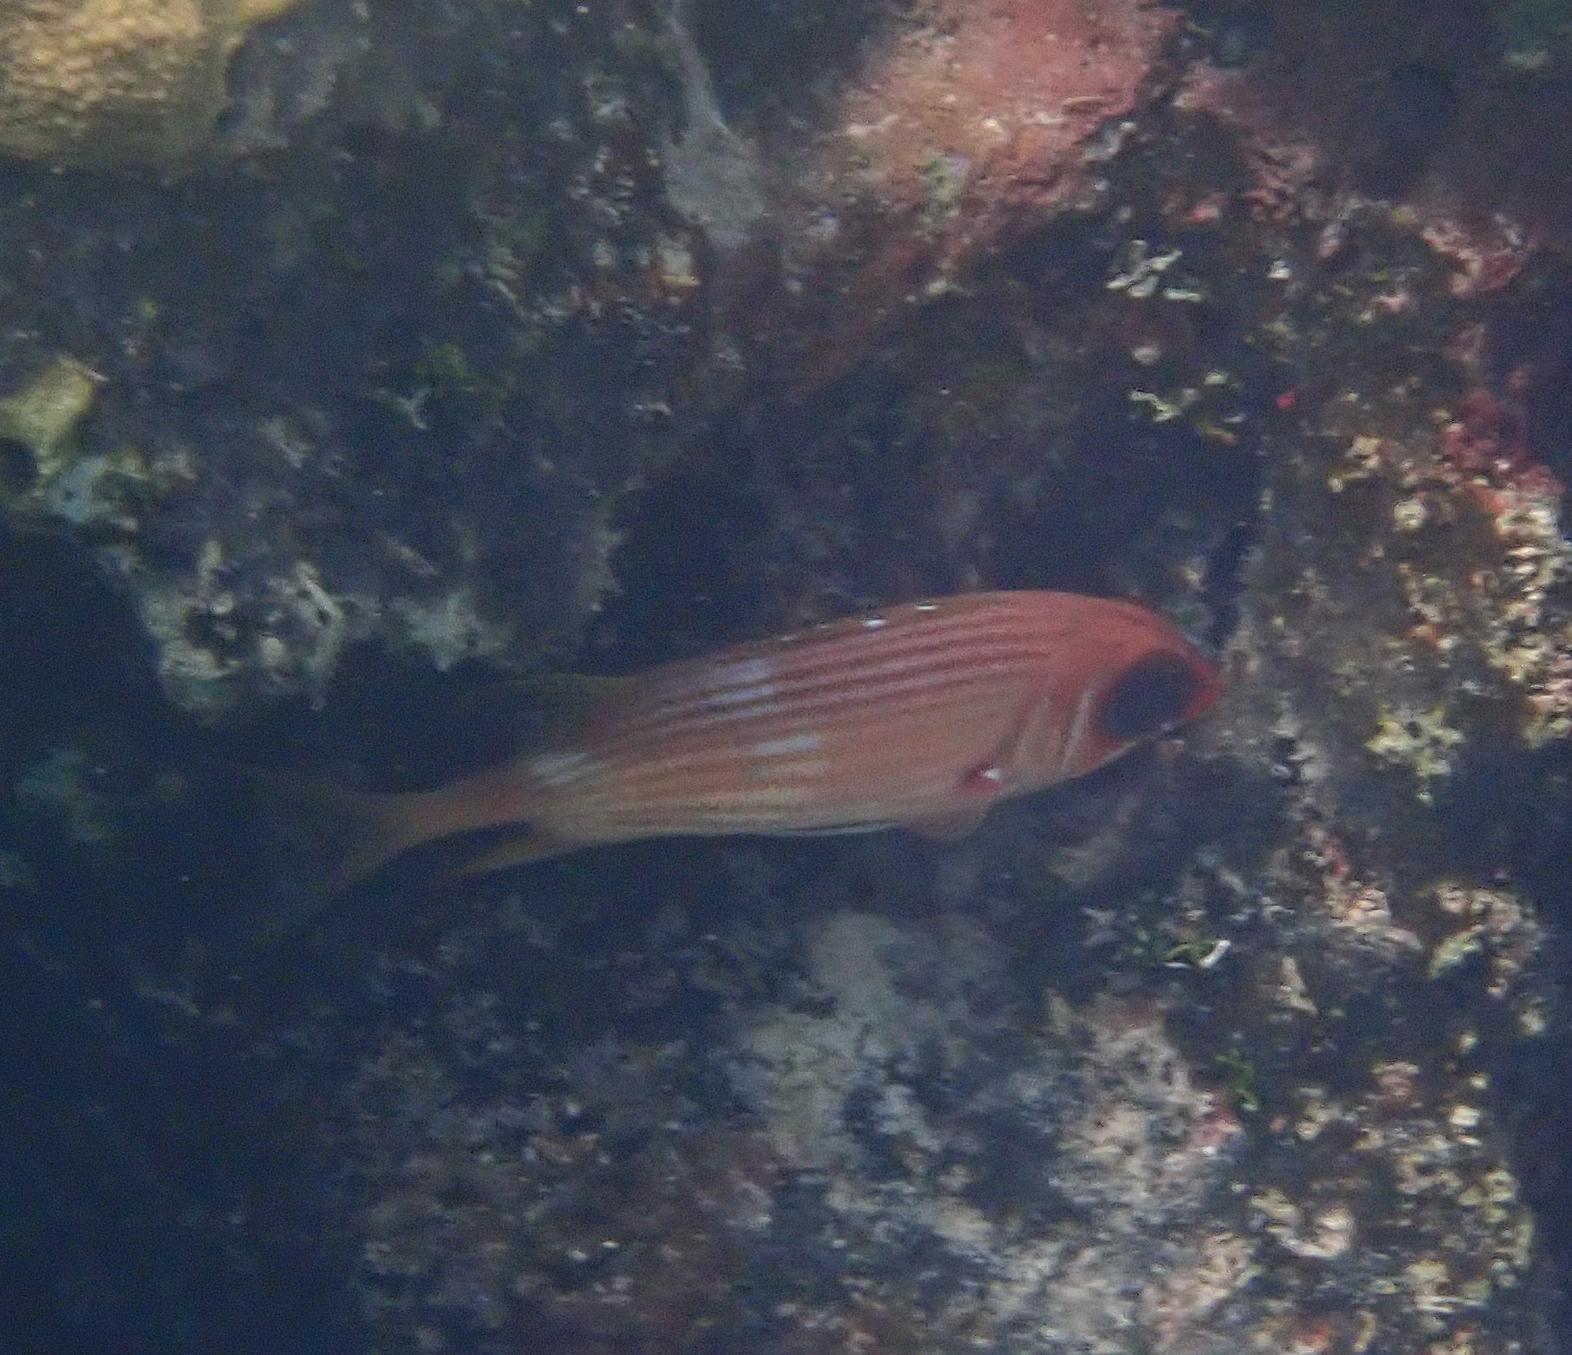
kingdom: Animalia
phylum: Chordata
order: Beryciformes
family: Holocentridae
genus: Holocentrus
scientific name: Holocentrus rufus
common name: Longspine squirrelfish
